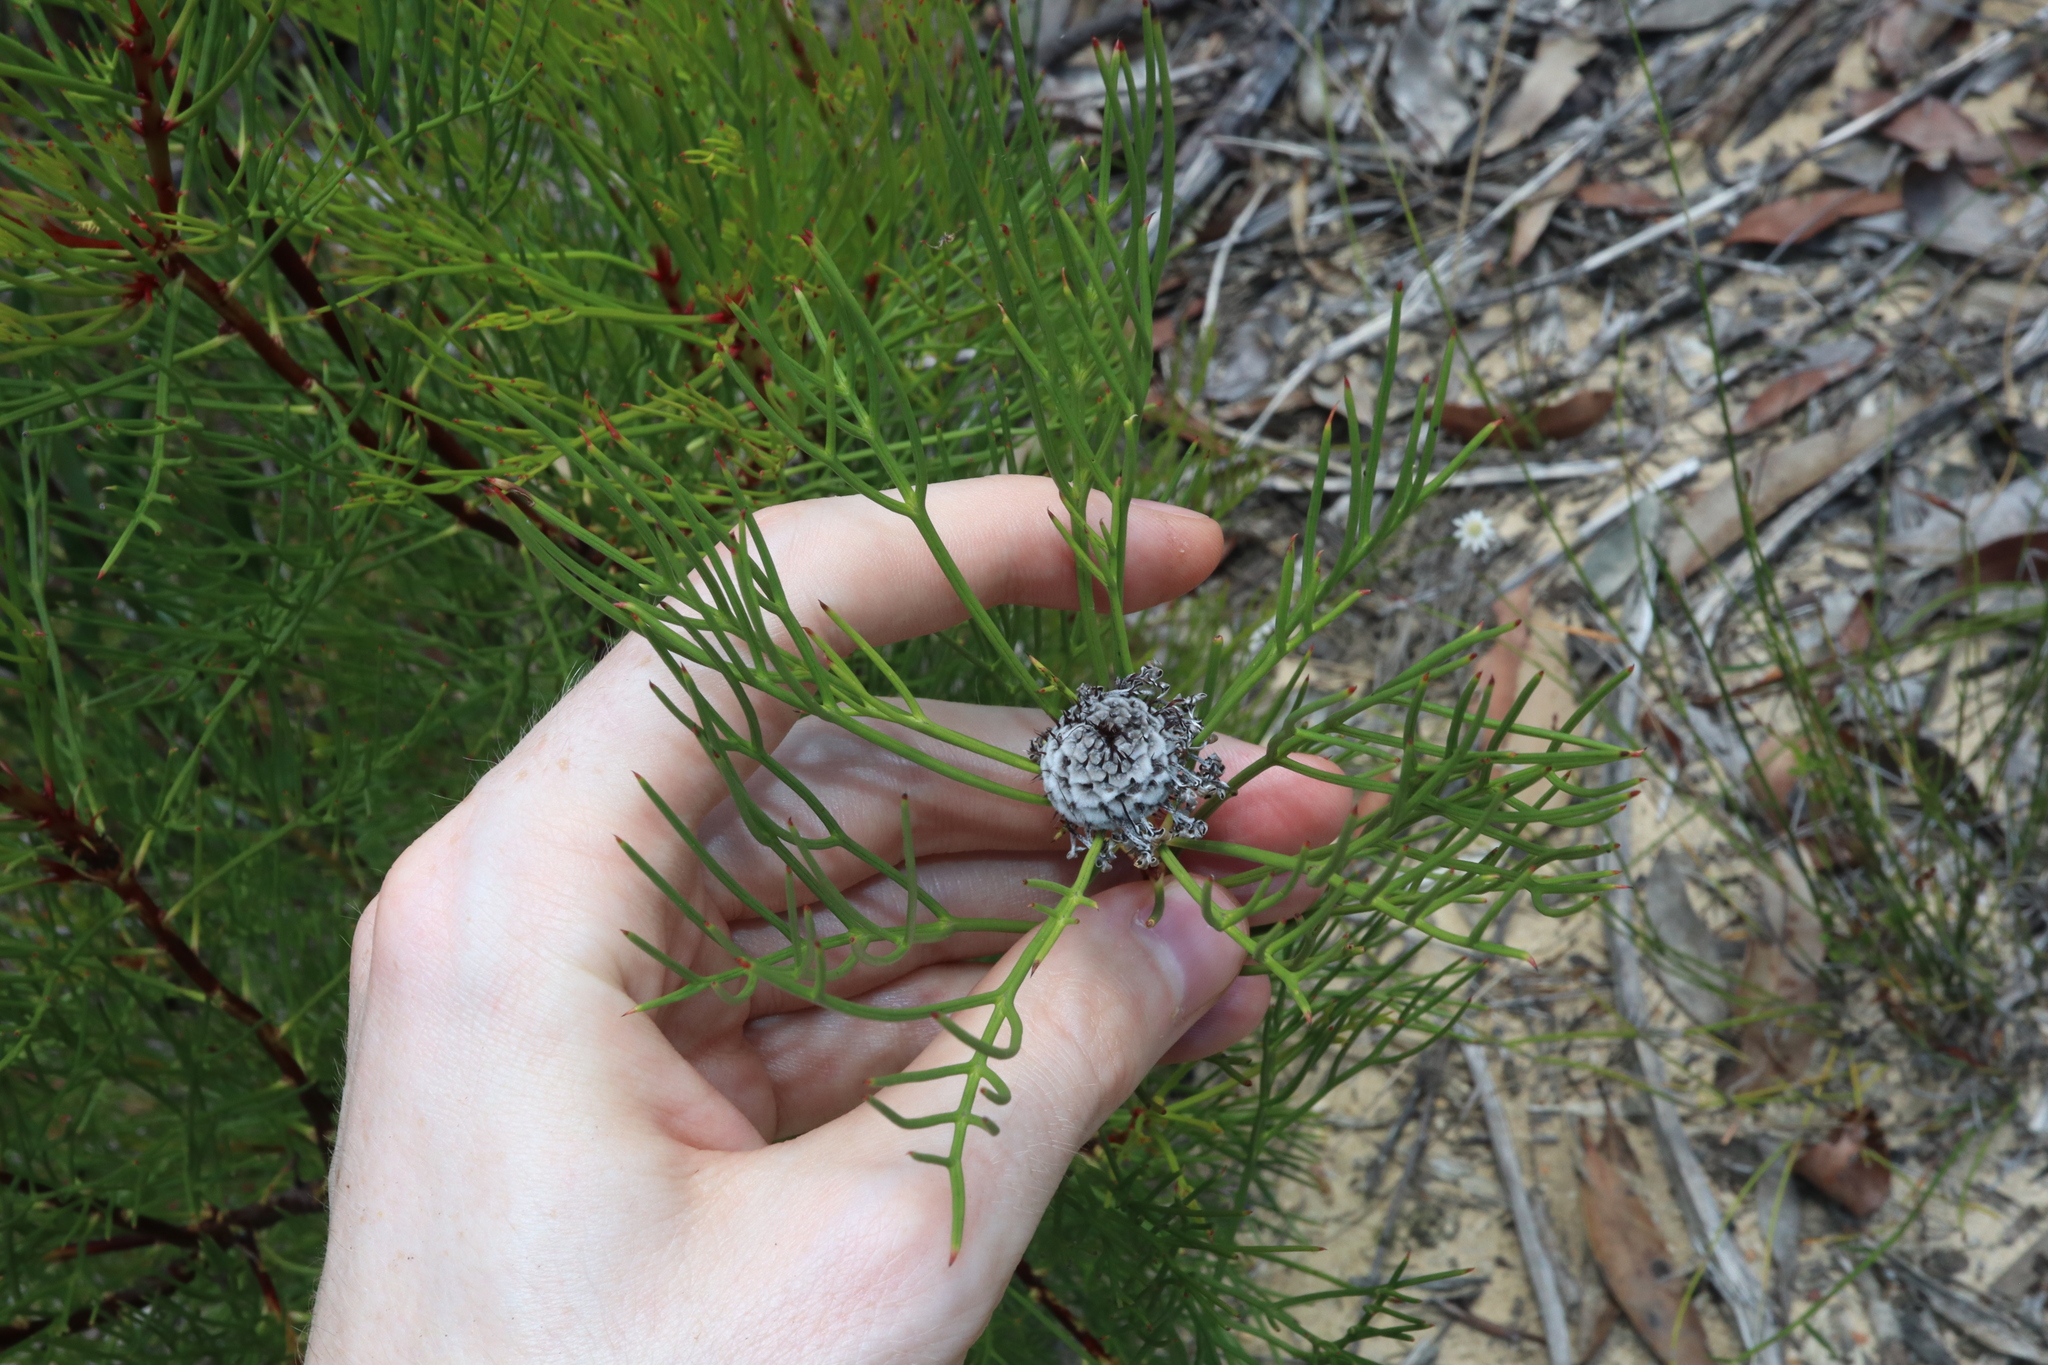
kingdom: Plantae
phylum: Tracheophyta
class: Magnoliopsida
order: Proteales
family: Proteaceae
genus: Isopogon
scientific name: Isopogon anethifolius
